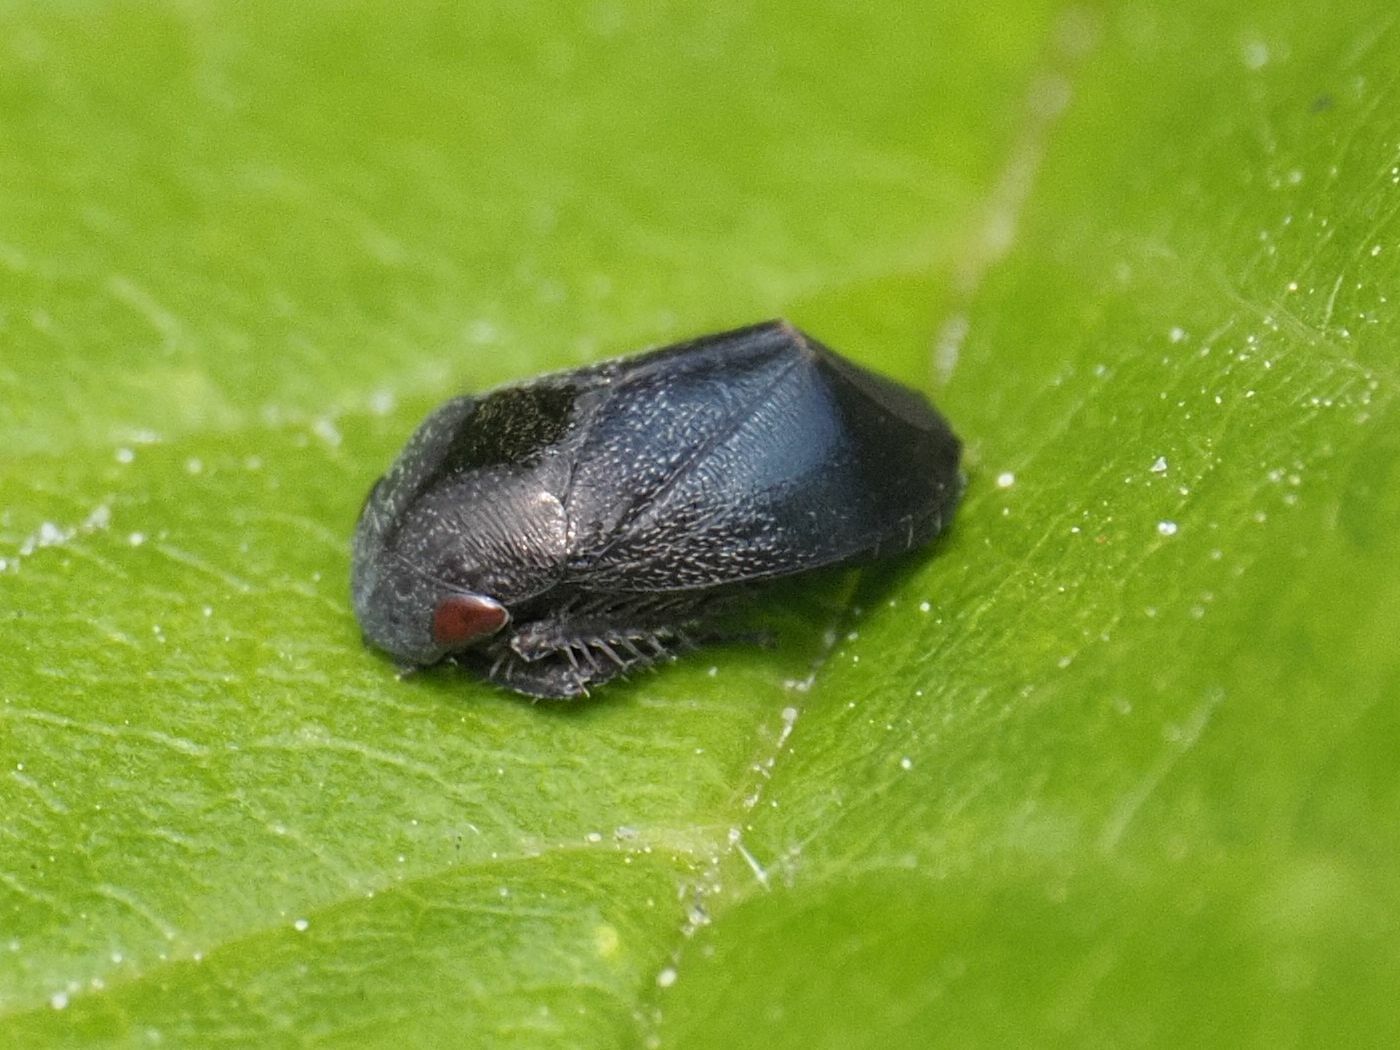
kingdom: Animalia
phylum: Arthropoda
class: Insecta
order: Hemiptera
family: Cicadellidae
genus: Penthimia
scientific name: Penthimia nigra
